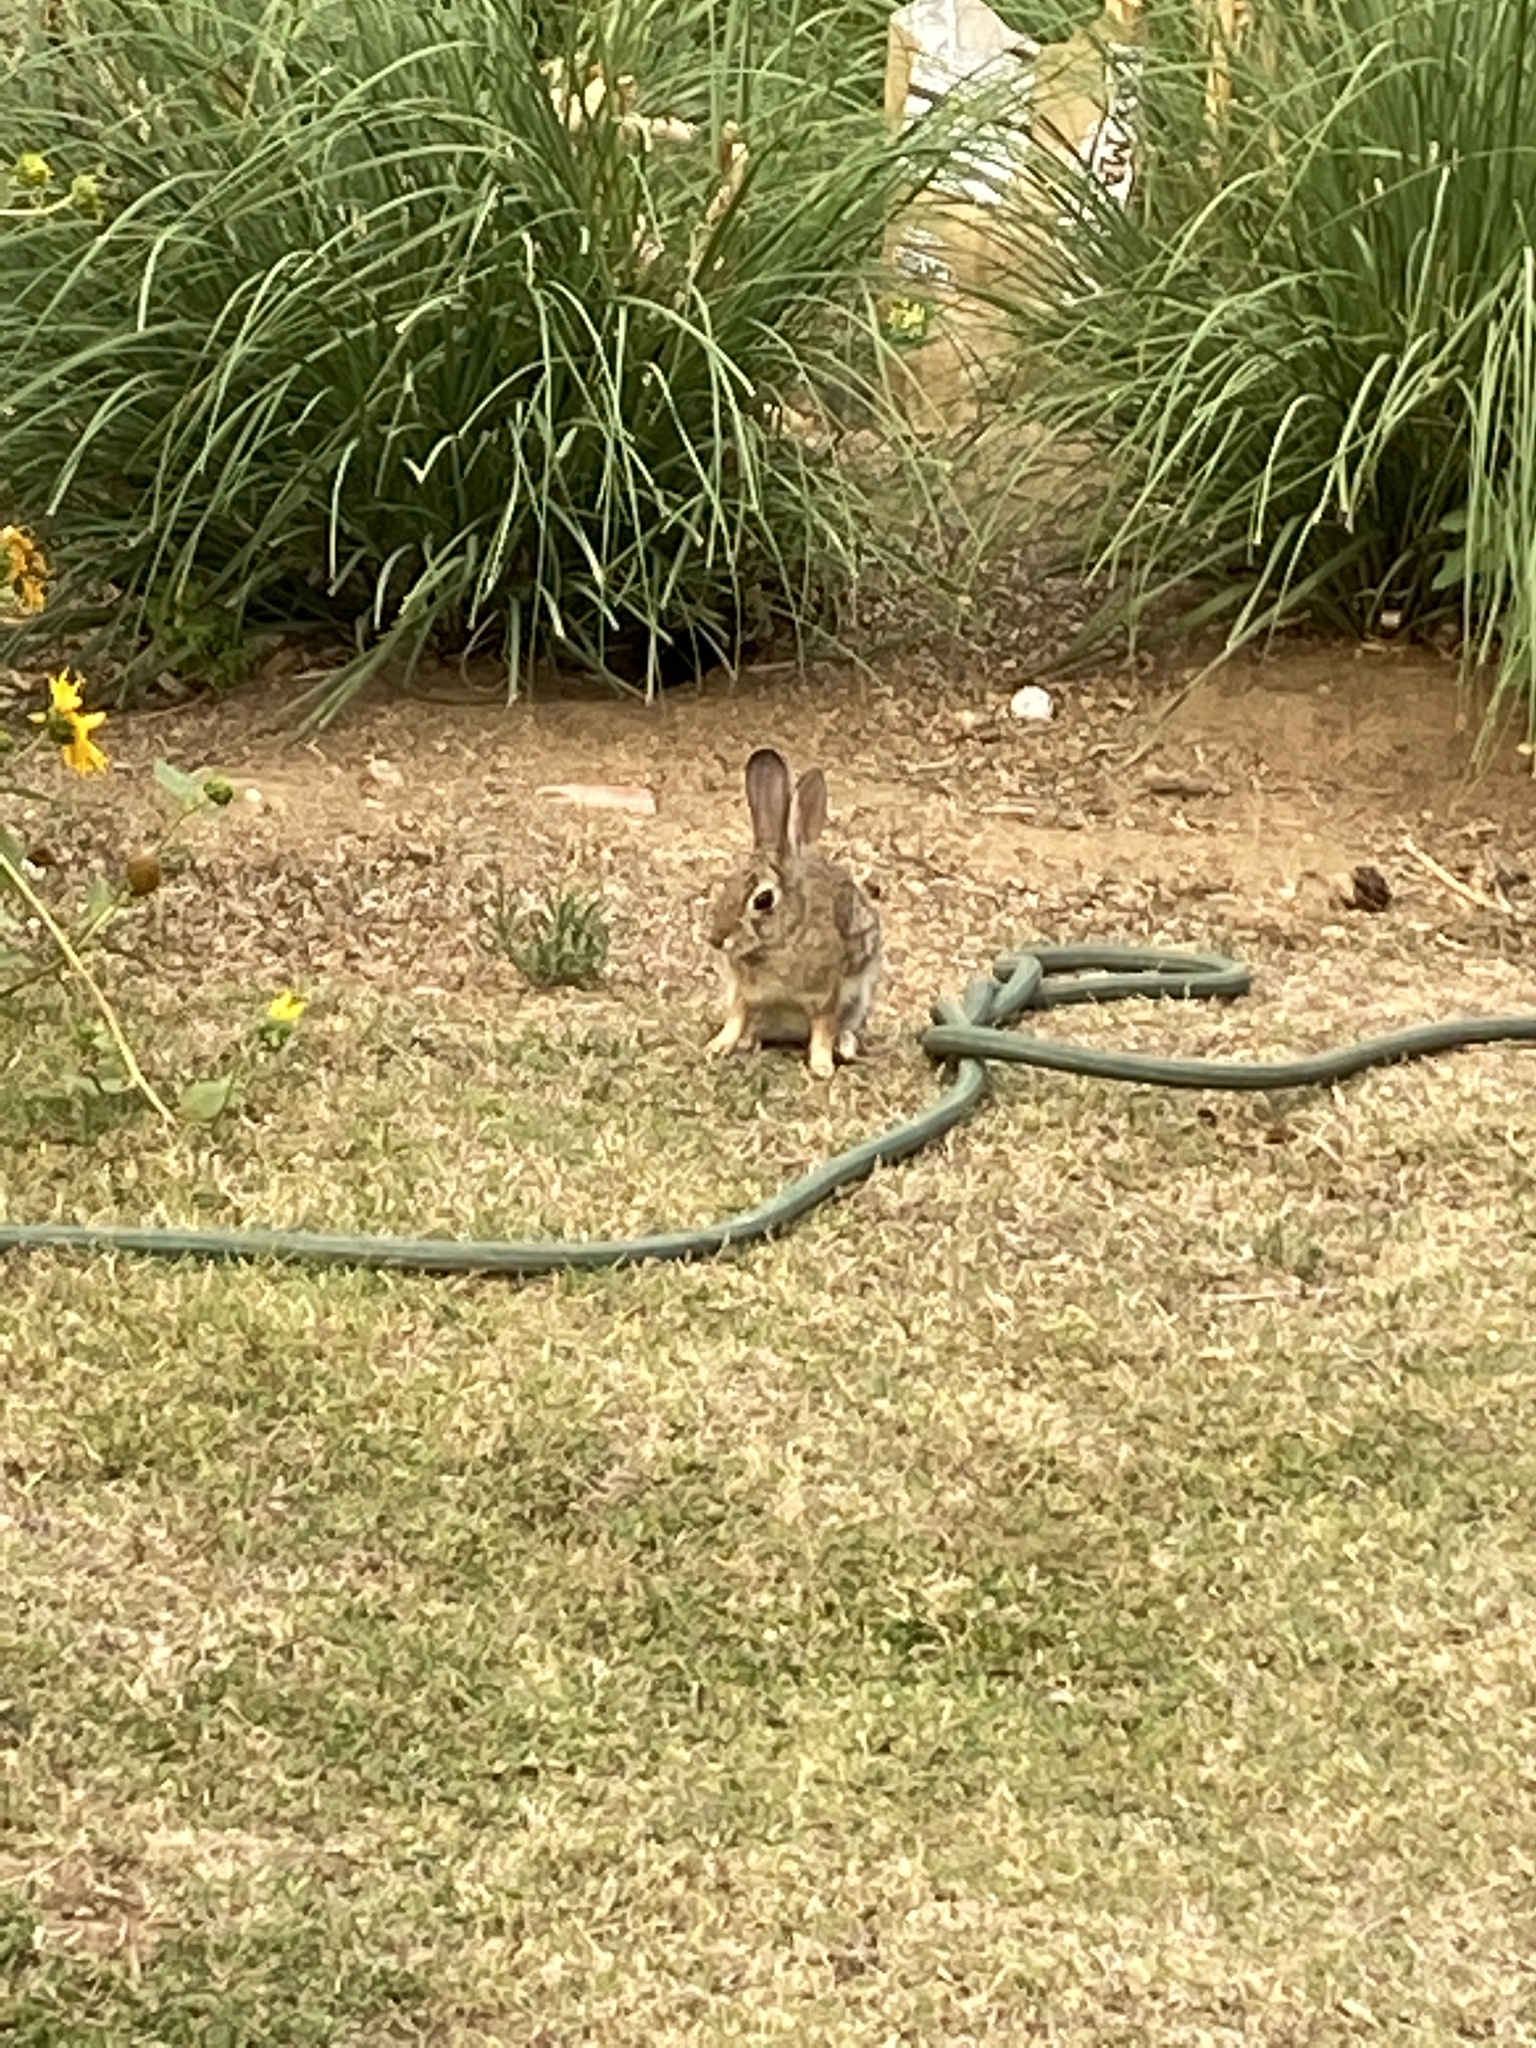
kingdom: Animalia
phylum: Chordata
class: Mammalia
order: Lagomorpha
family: Leporidae
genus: Sylvilagus
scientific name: Sylvilagus audubonii
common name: Desert cottontail
